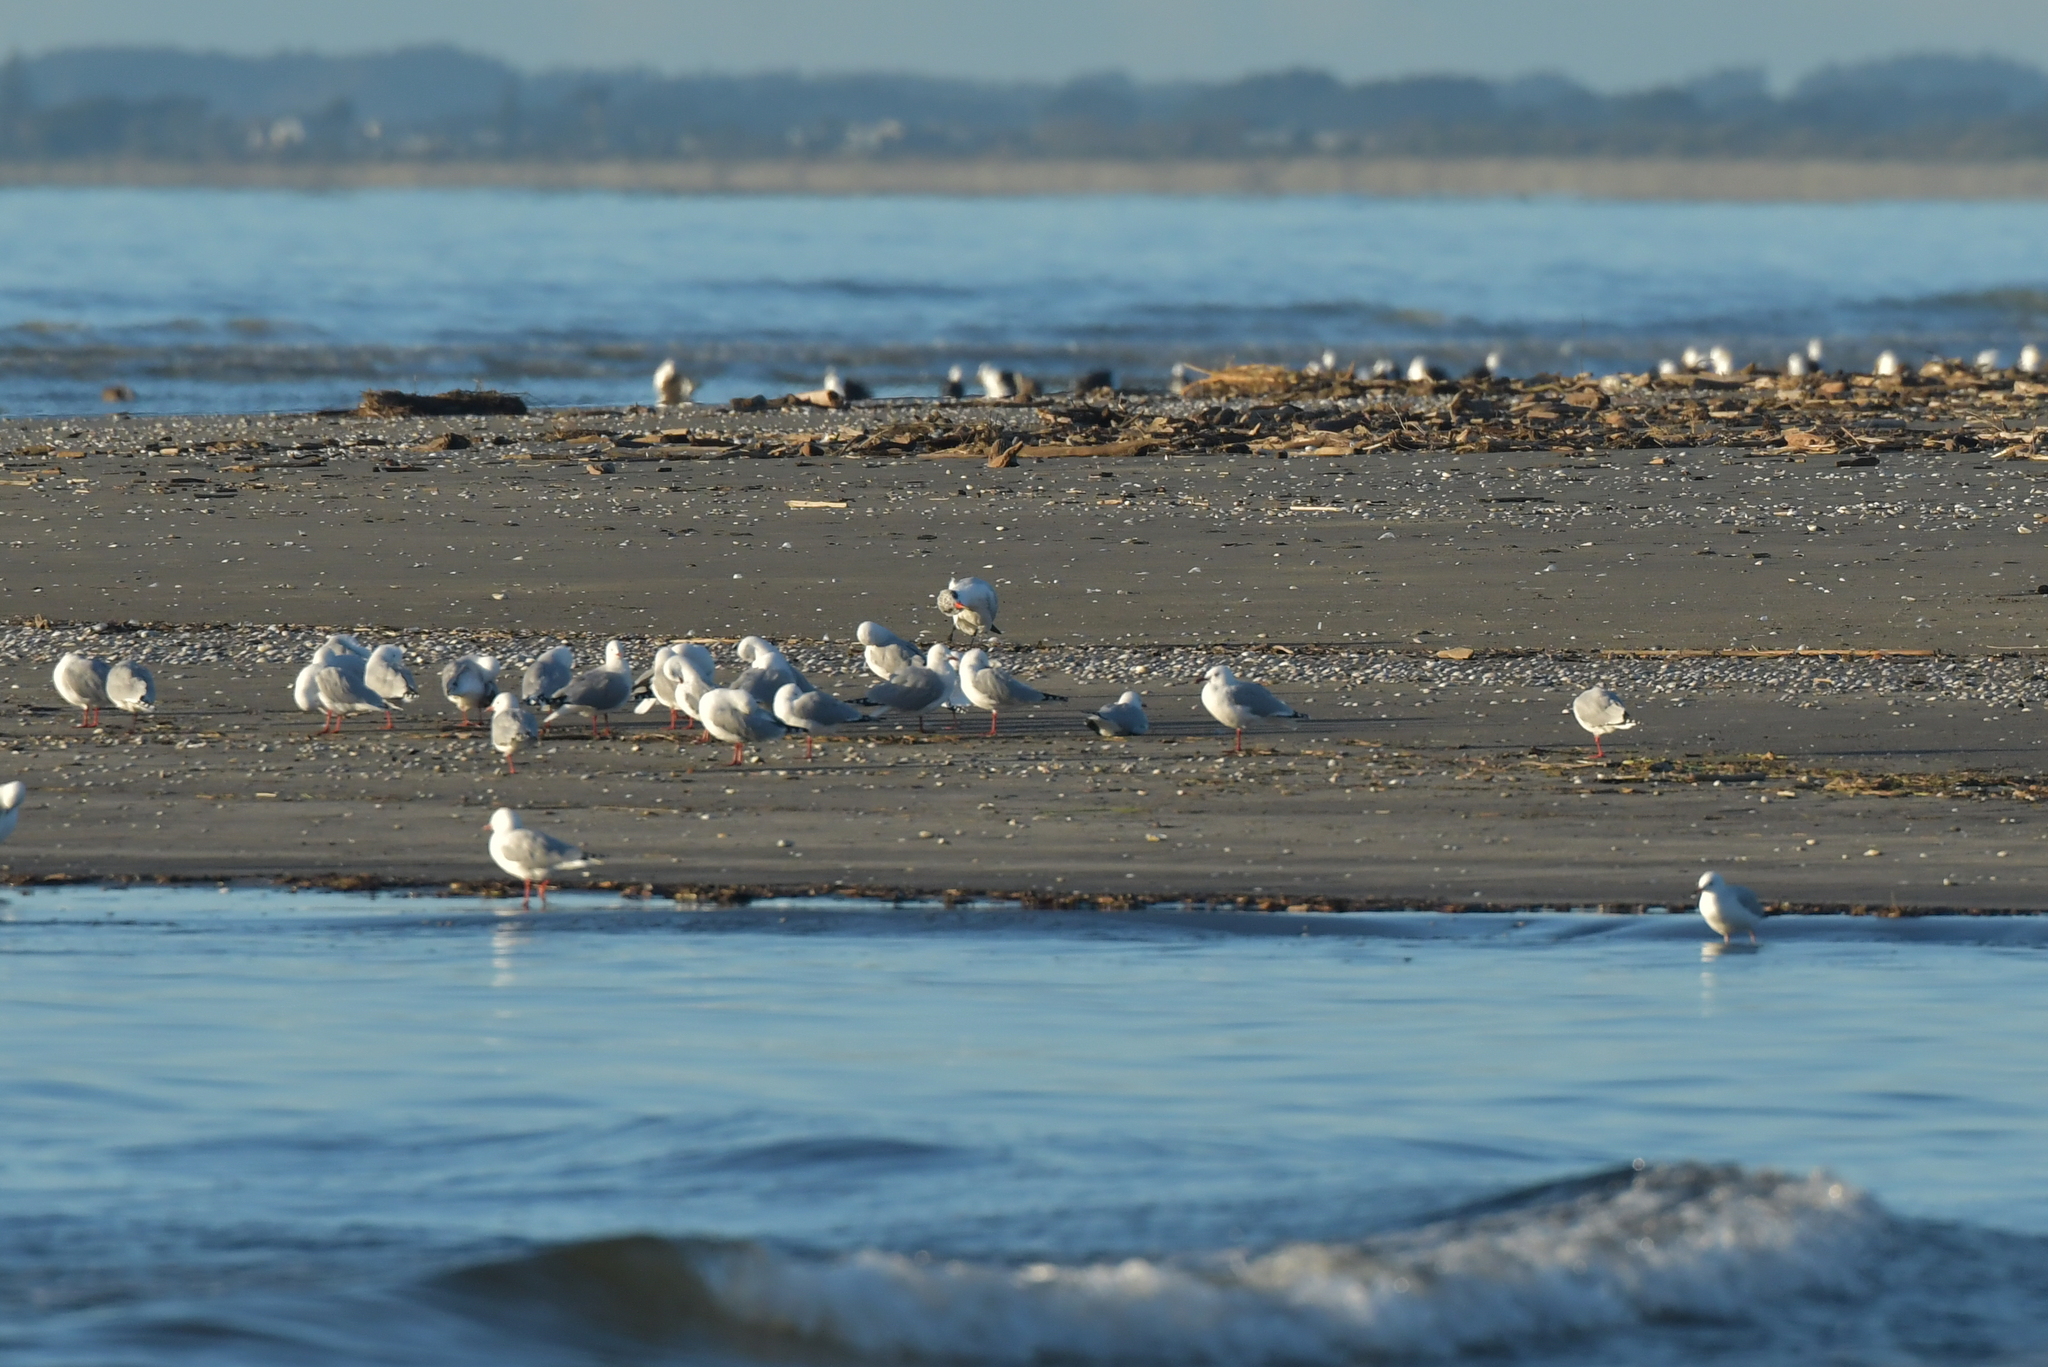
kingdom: Animalia
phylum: Chordata
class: Aves
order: Charadriiformes
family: Laridae
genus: Hydroprogne
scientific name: Hydroprogne caspia
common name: Caspian tern
